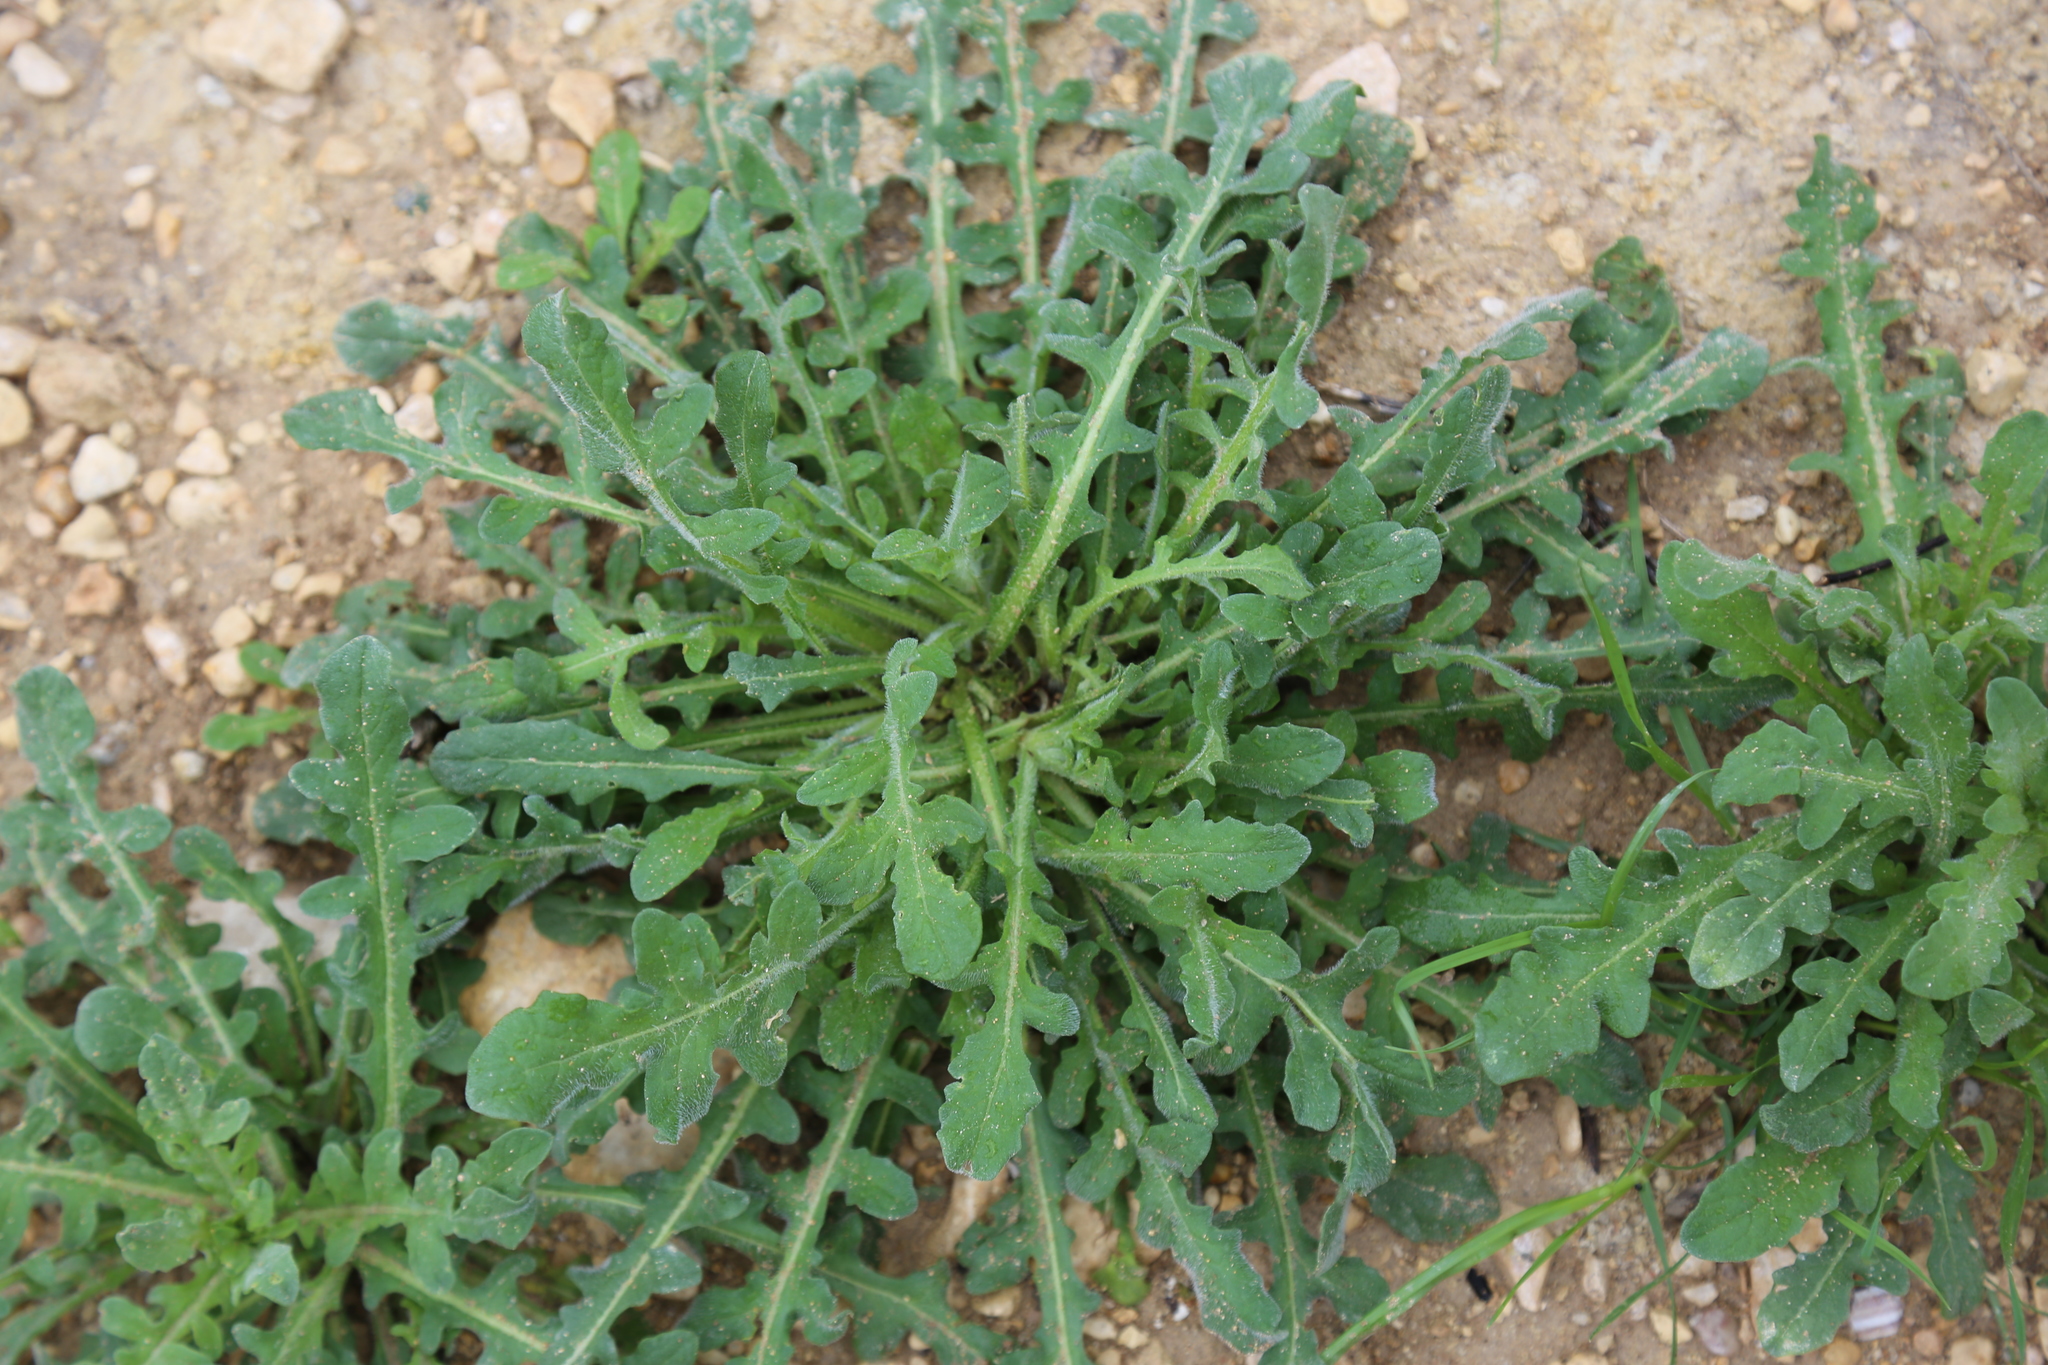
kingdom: Plantae
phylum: Tracheophyta
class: Magnoliopsida
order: Asterales
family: Asteraceae
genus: Centaurea
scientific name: Centaurea melitensis
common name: Maltese star-thistle
